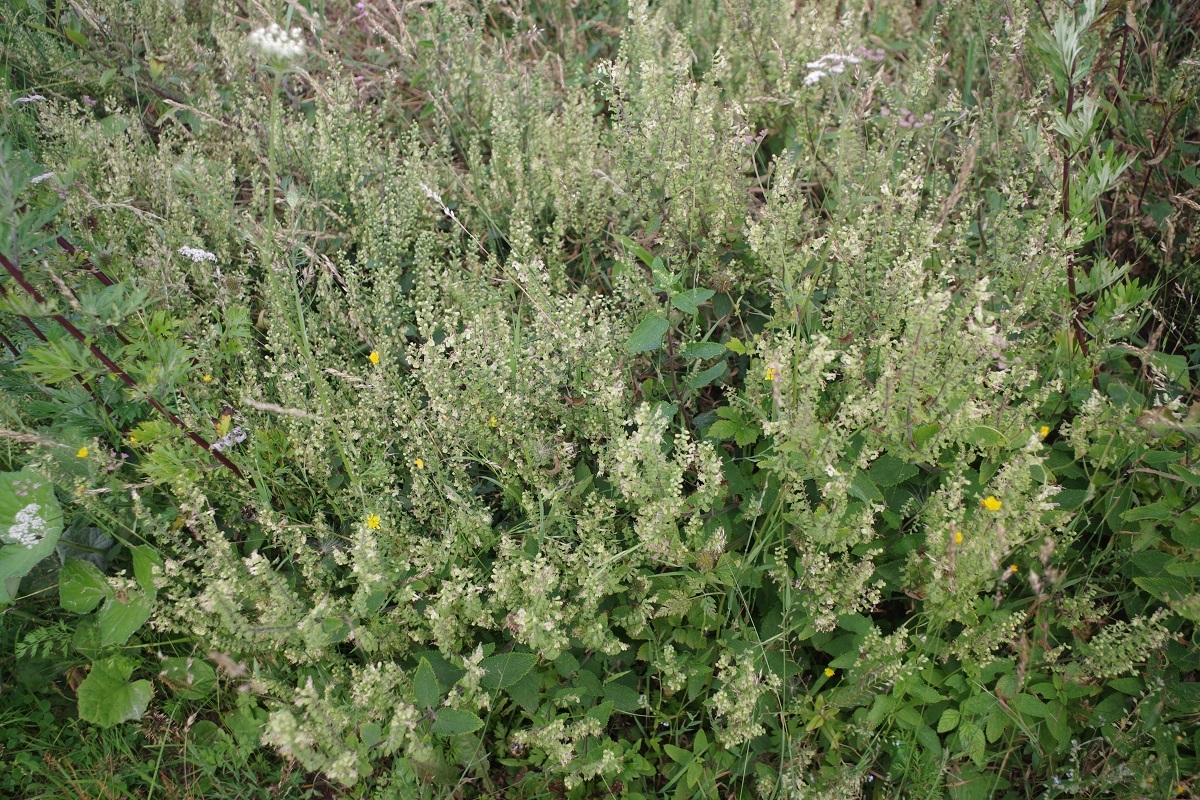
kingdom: Plantae
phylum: Tracheophyta
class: Magnoliopsida
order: Lamiales
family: Lamiaceae
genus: Teucrium
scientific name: Teucrium scorodonia
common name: Woodland germander
